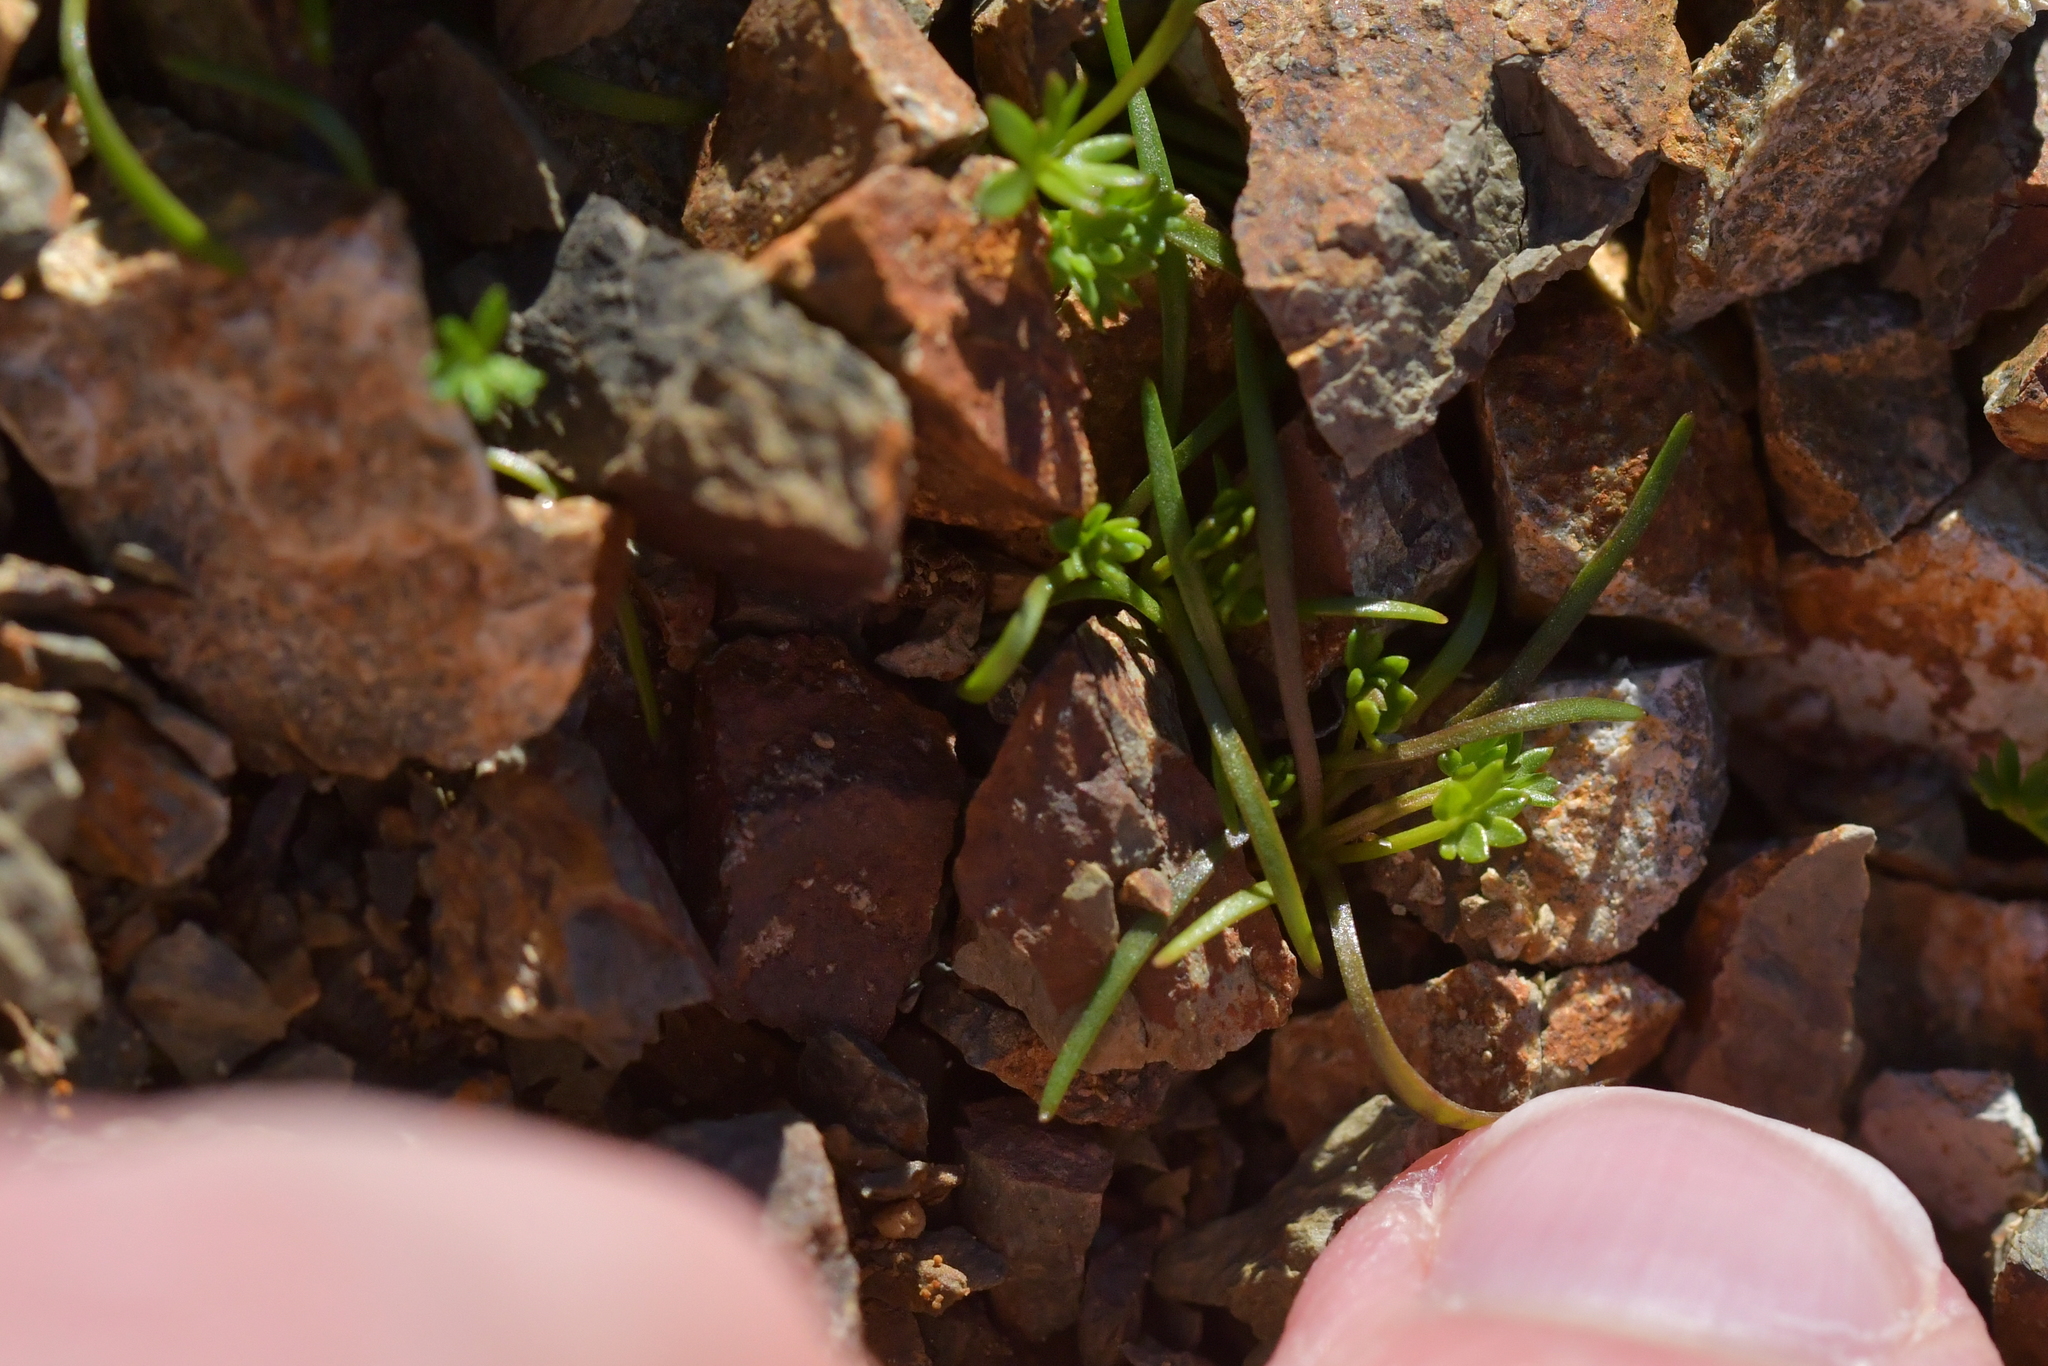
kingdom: Plantae
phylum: Tracheophyta
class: Magnoliopsida
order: Caryophyllales
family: Montiaceae
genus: Montia
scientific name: Montia calycina
